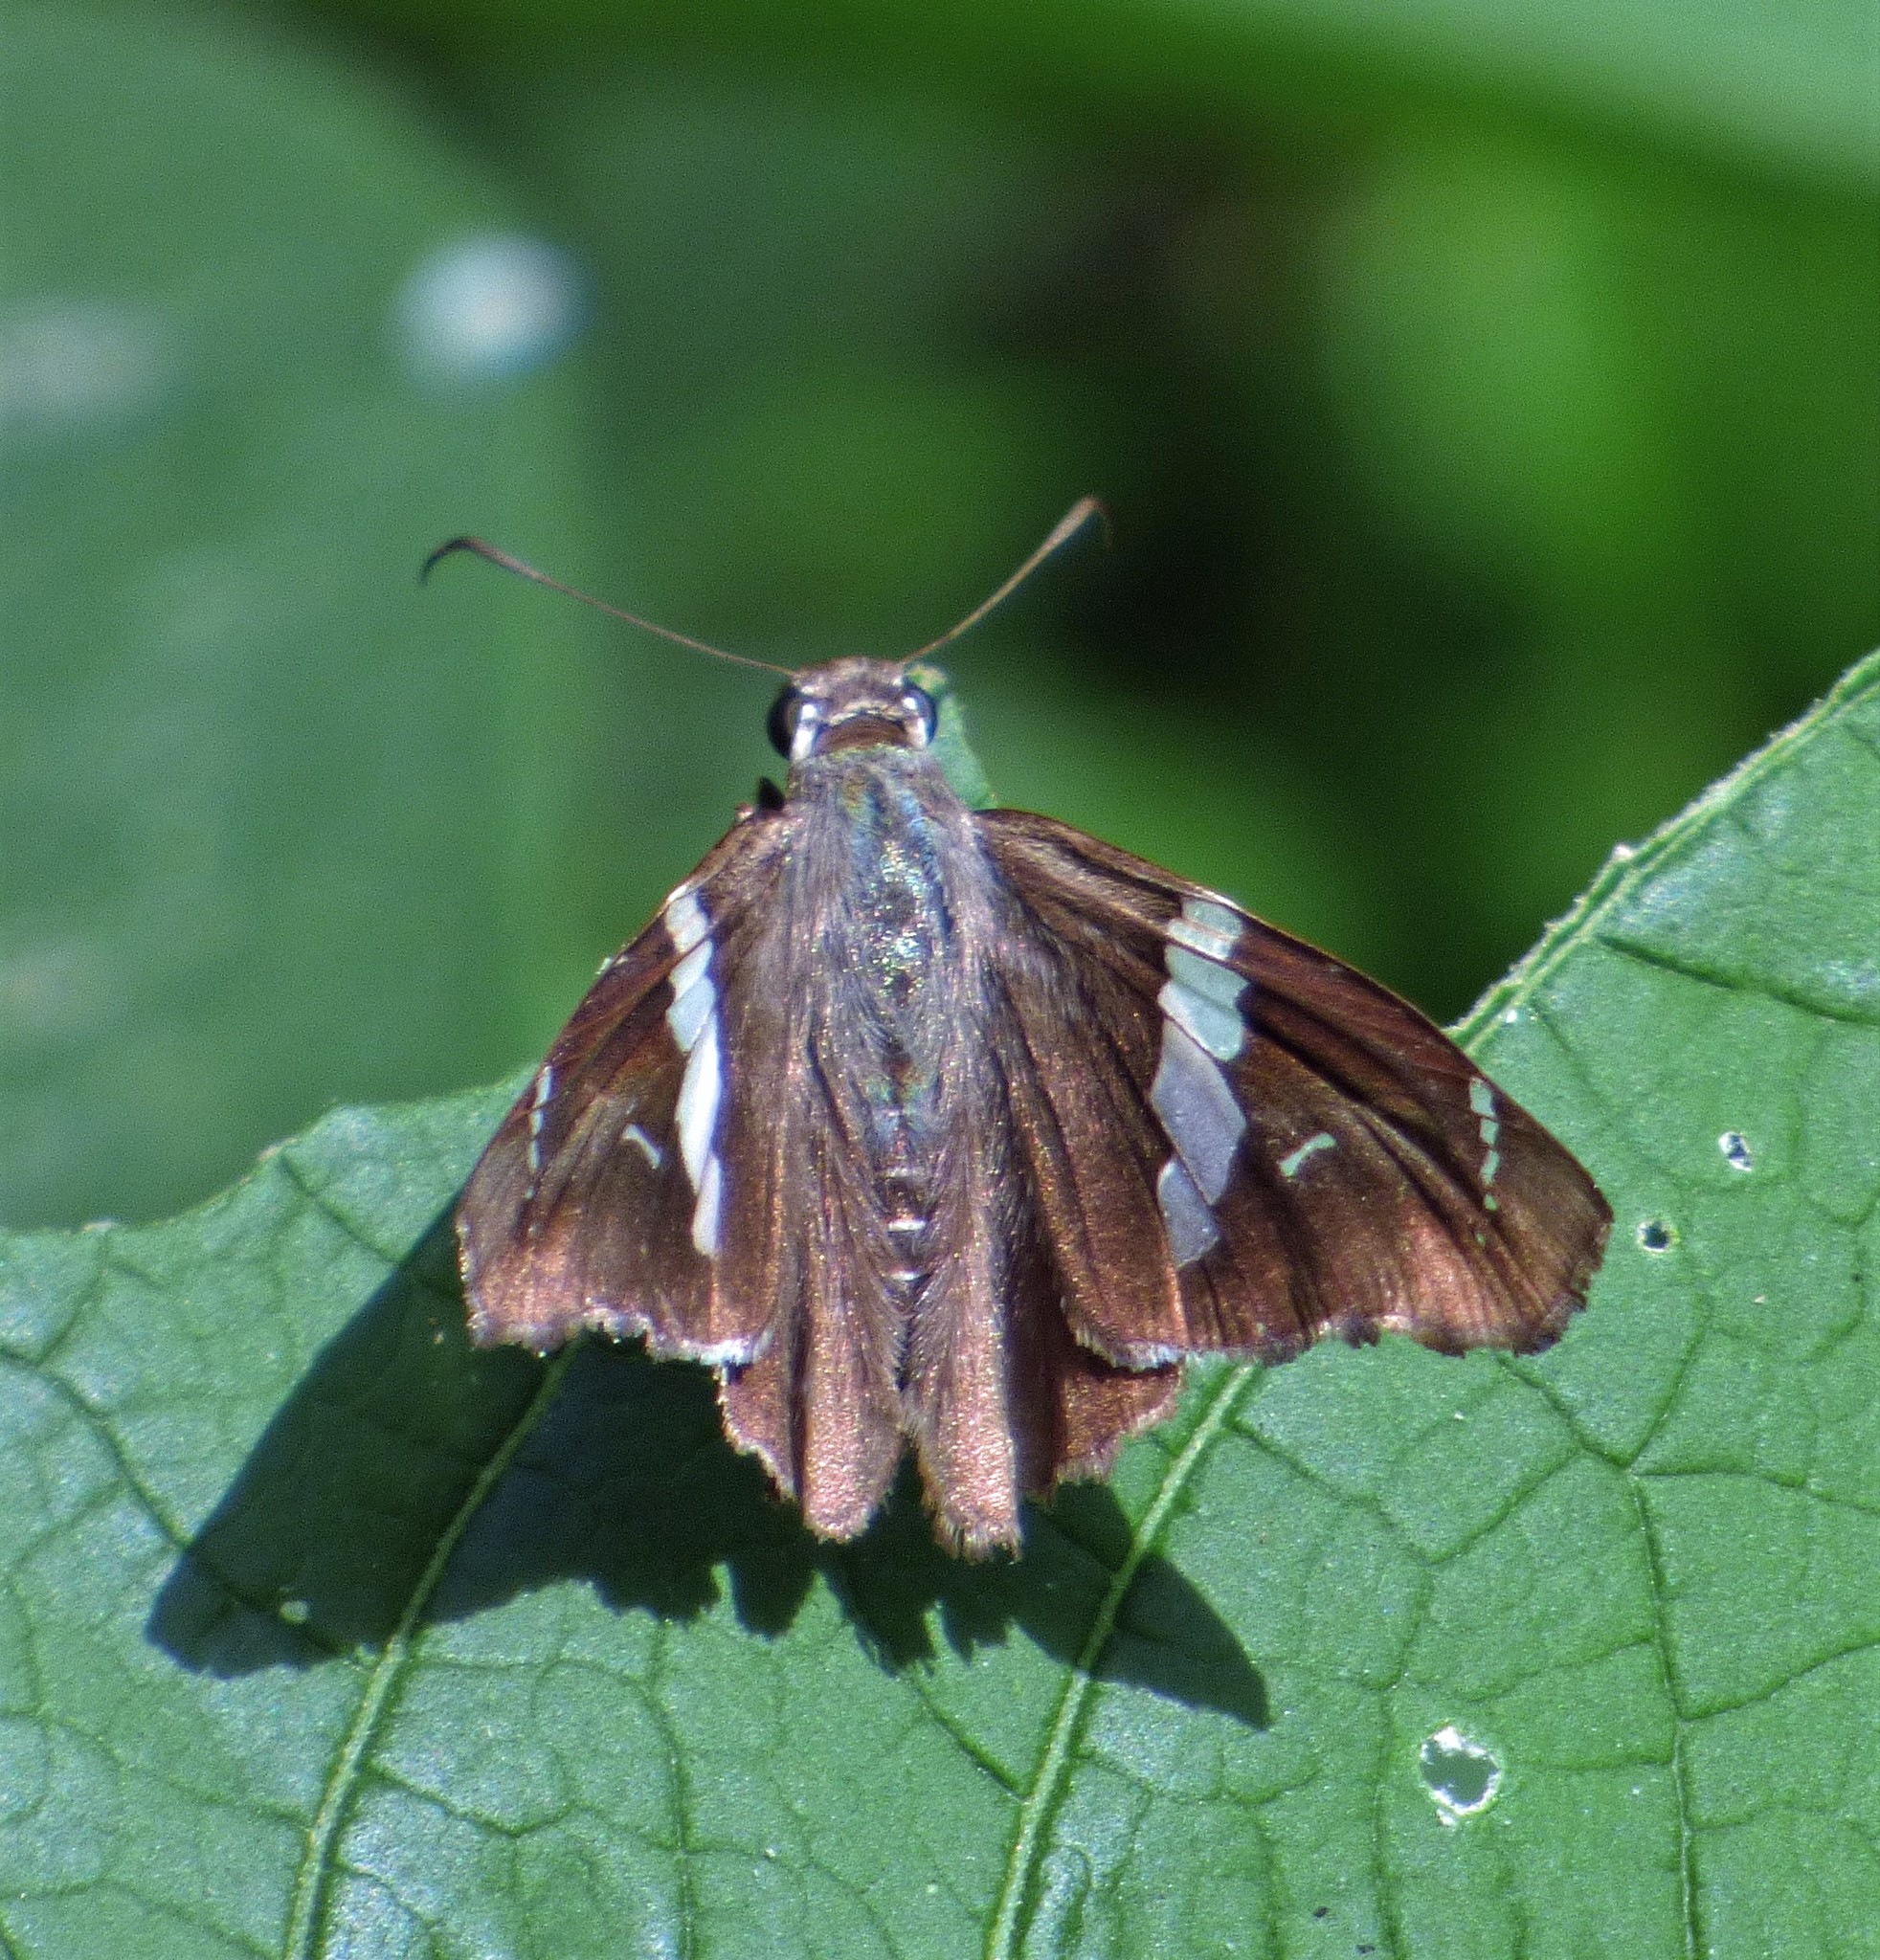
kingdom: Animalia
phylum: Arthropoda
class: Insecta
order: Lepidoptera
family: Hesperiidae
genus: Spathilepia
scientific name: Spathilepia clonius
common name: Falcate skipper
